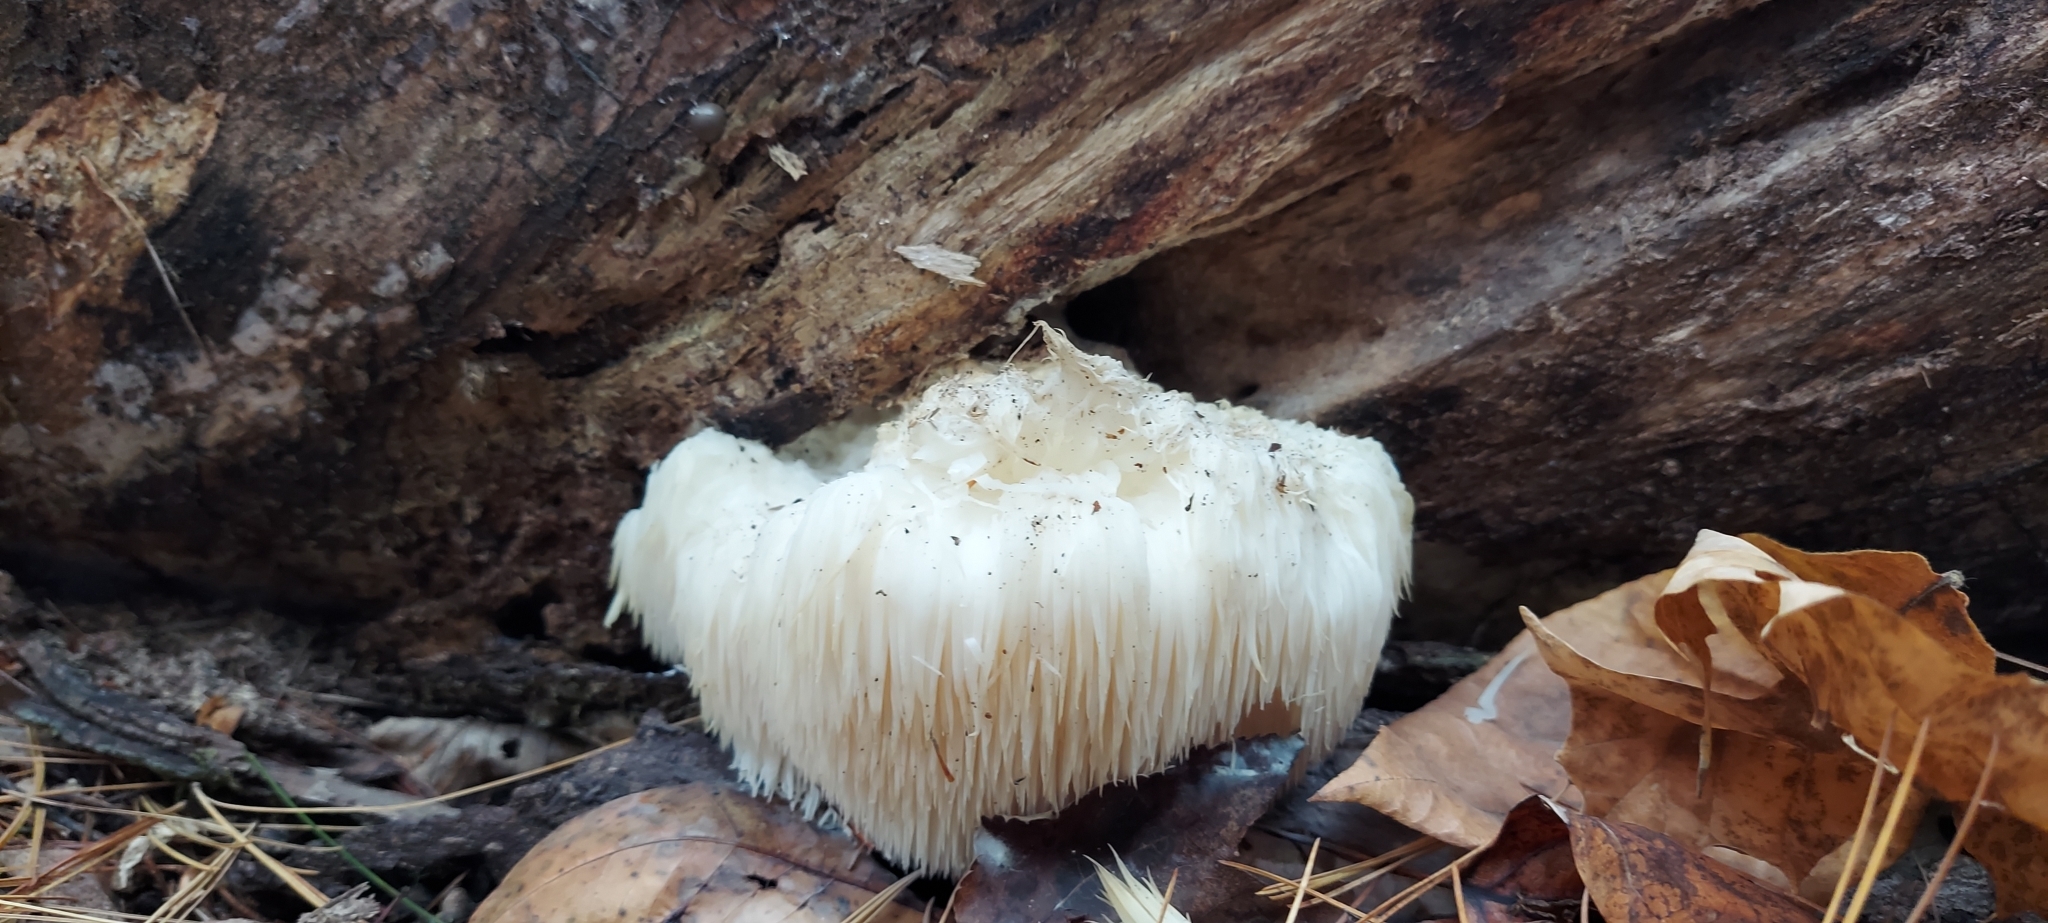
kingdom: Fungi
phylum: Basidiomycota
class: Agaricomycetes
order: Russulales
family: Hericiaceae
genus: Hericium
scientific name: Hericium erinaceus
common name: Bearded tooth
